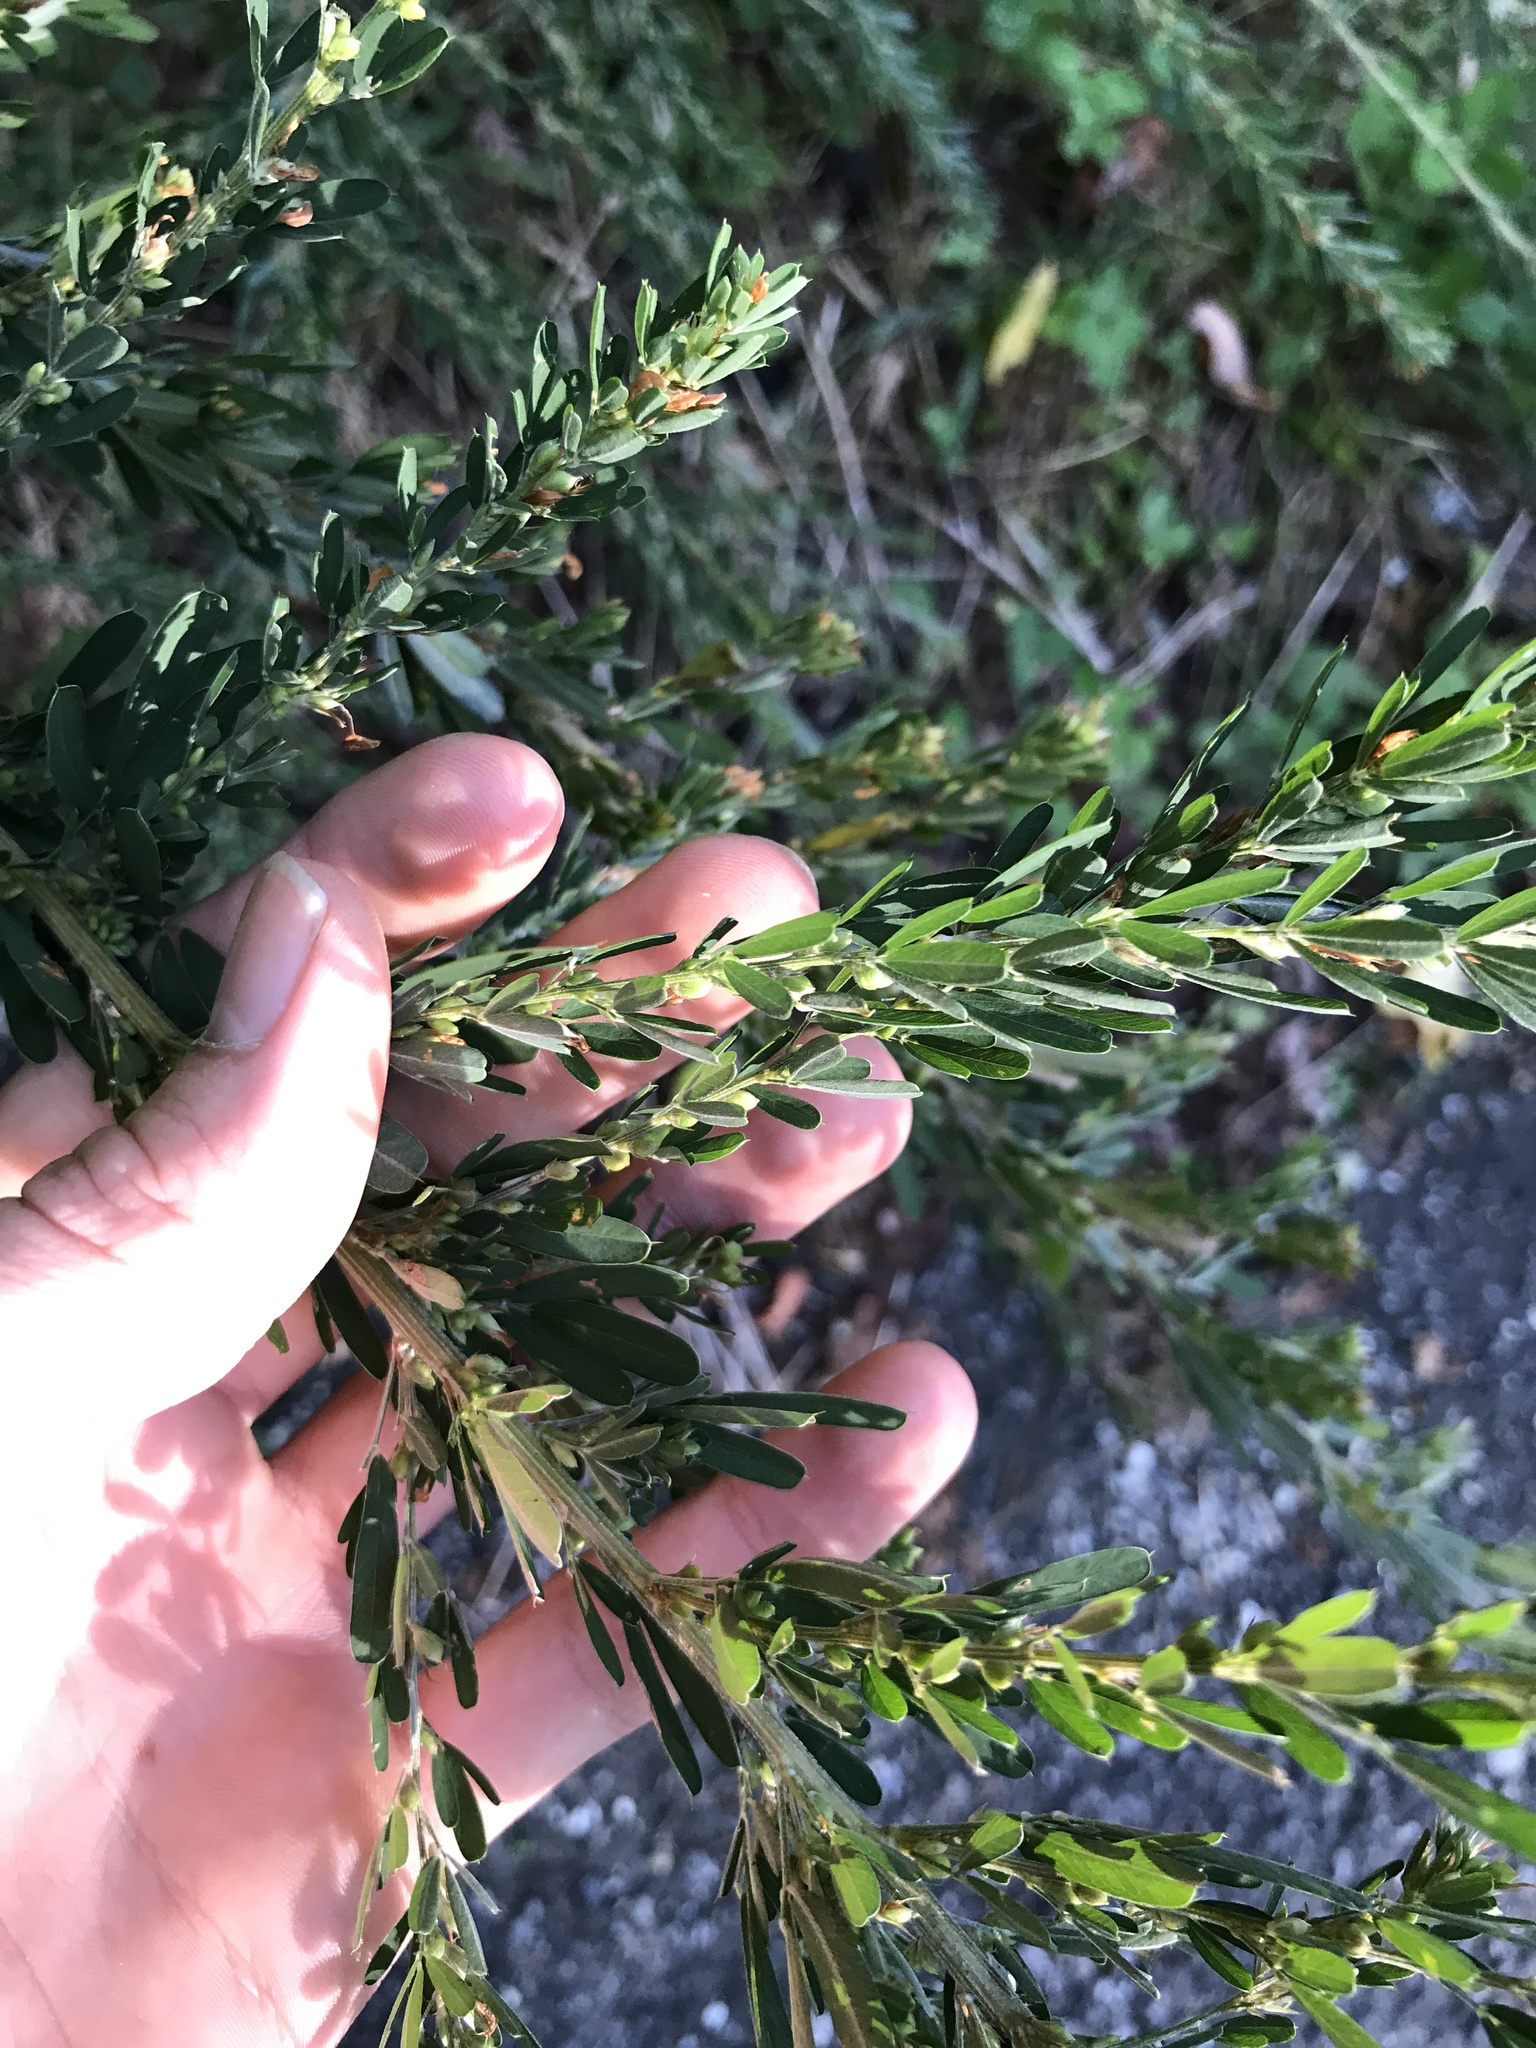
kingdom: Plantae
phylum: Tracheophyta
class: Magnoliopsida
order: Fabales
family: Fabaceae
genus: Lespedeza
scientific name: Lespedeza cuneata
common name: Chinese bush-clover
